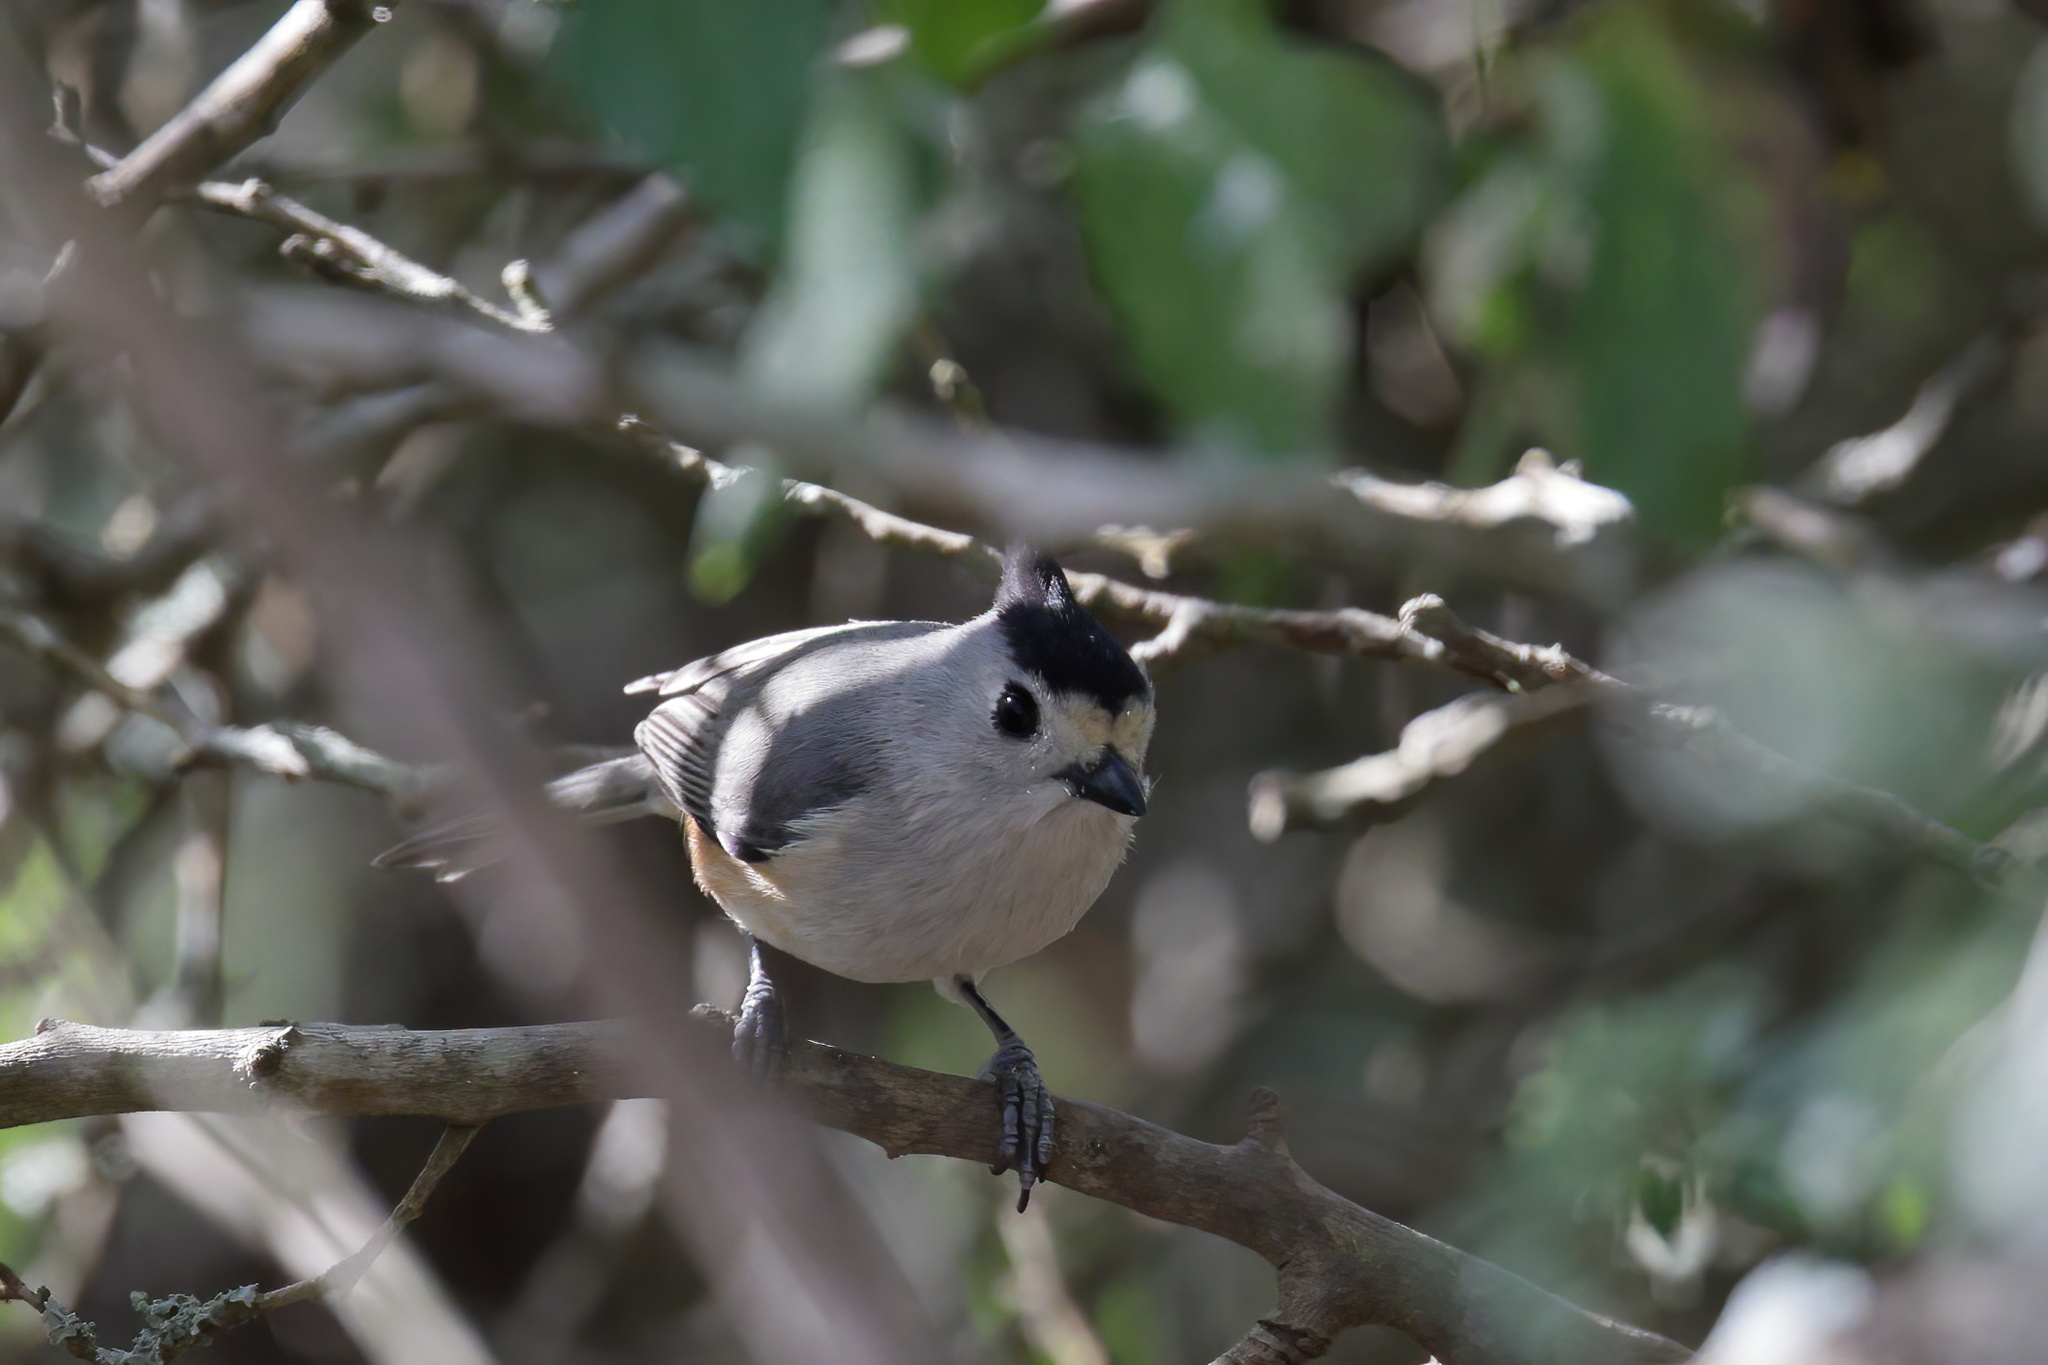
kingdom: Animalia
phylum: Chordata
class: Aves
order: Passeriformes
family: Paridae
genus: Baeolophus
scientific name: Baeolophus atricristatus
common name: Black-crested titmouse
